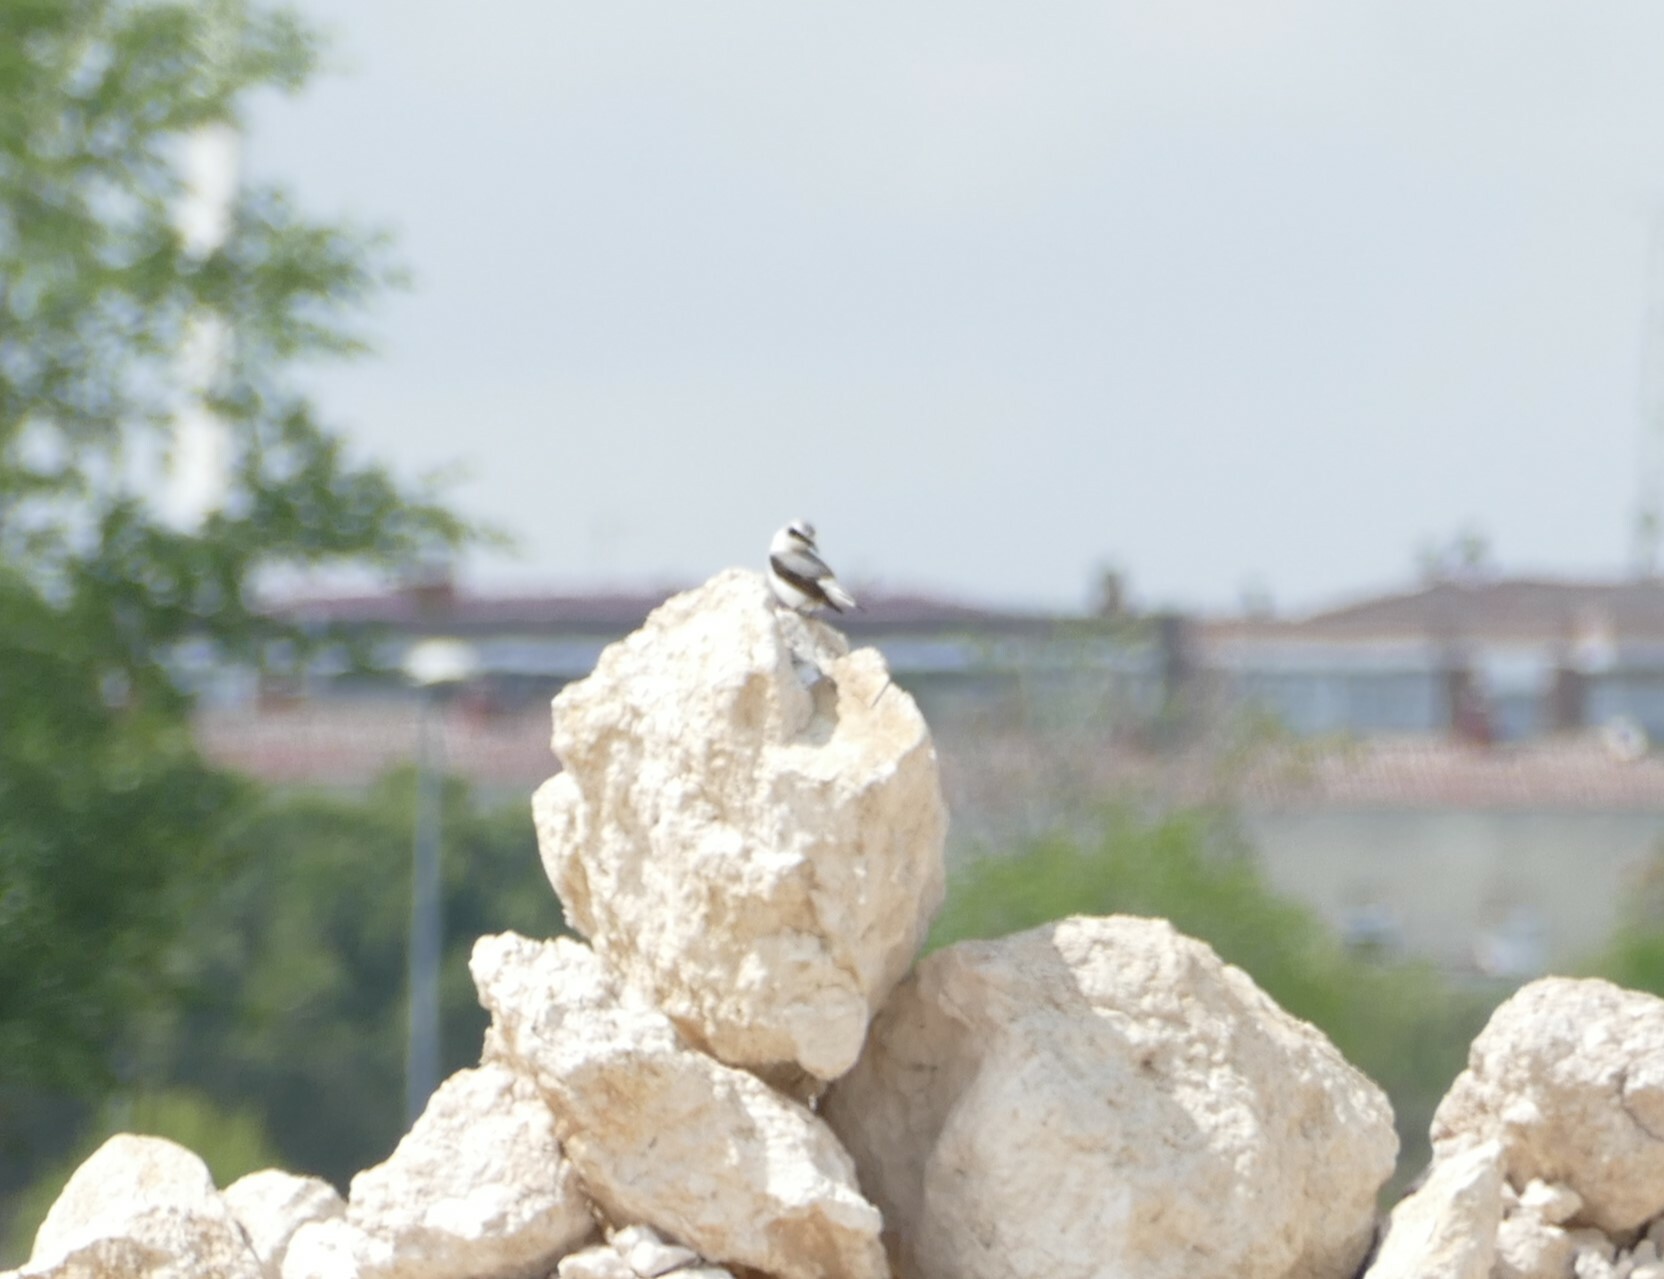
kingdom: Animalia
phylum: Chordata
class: Aves
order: Passeriformes
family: Muscicapidae
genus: Oenanthe
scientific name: Oenanthe oenanthe
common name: Northern wheatear
